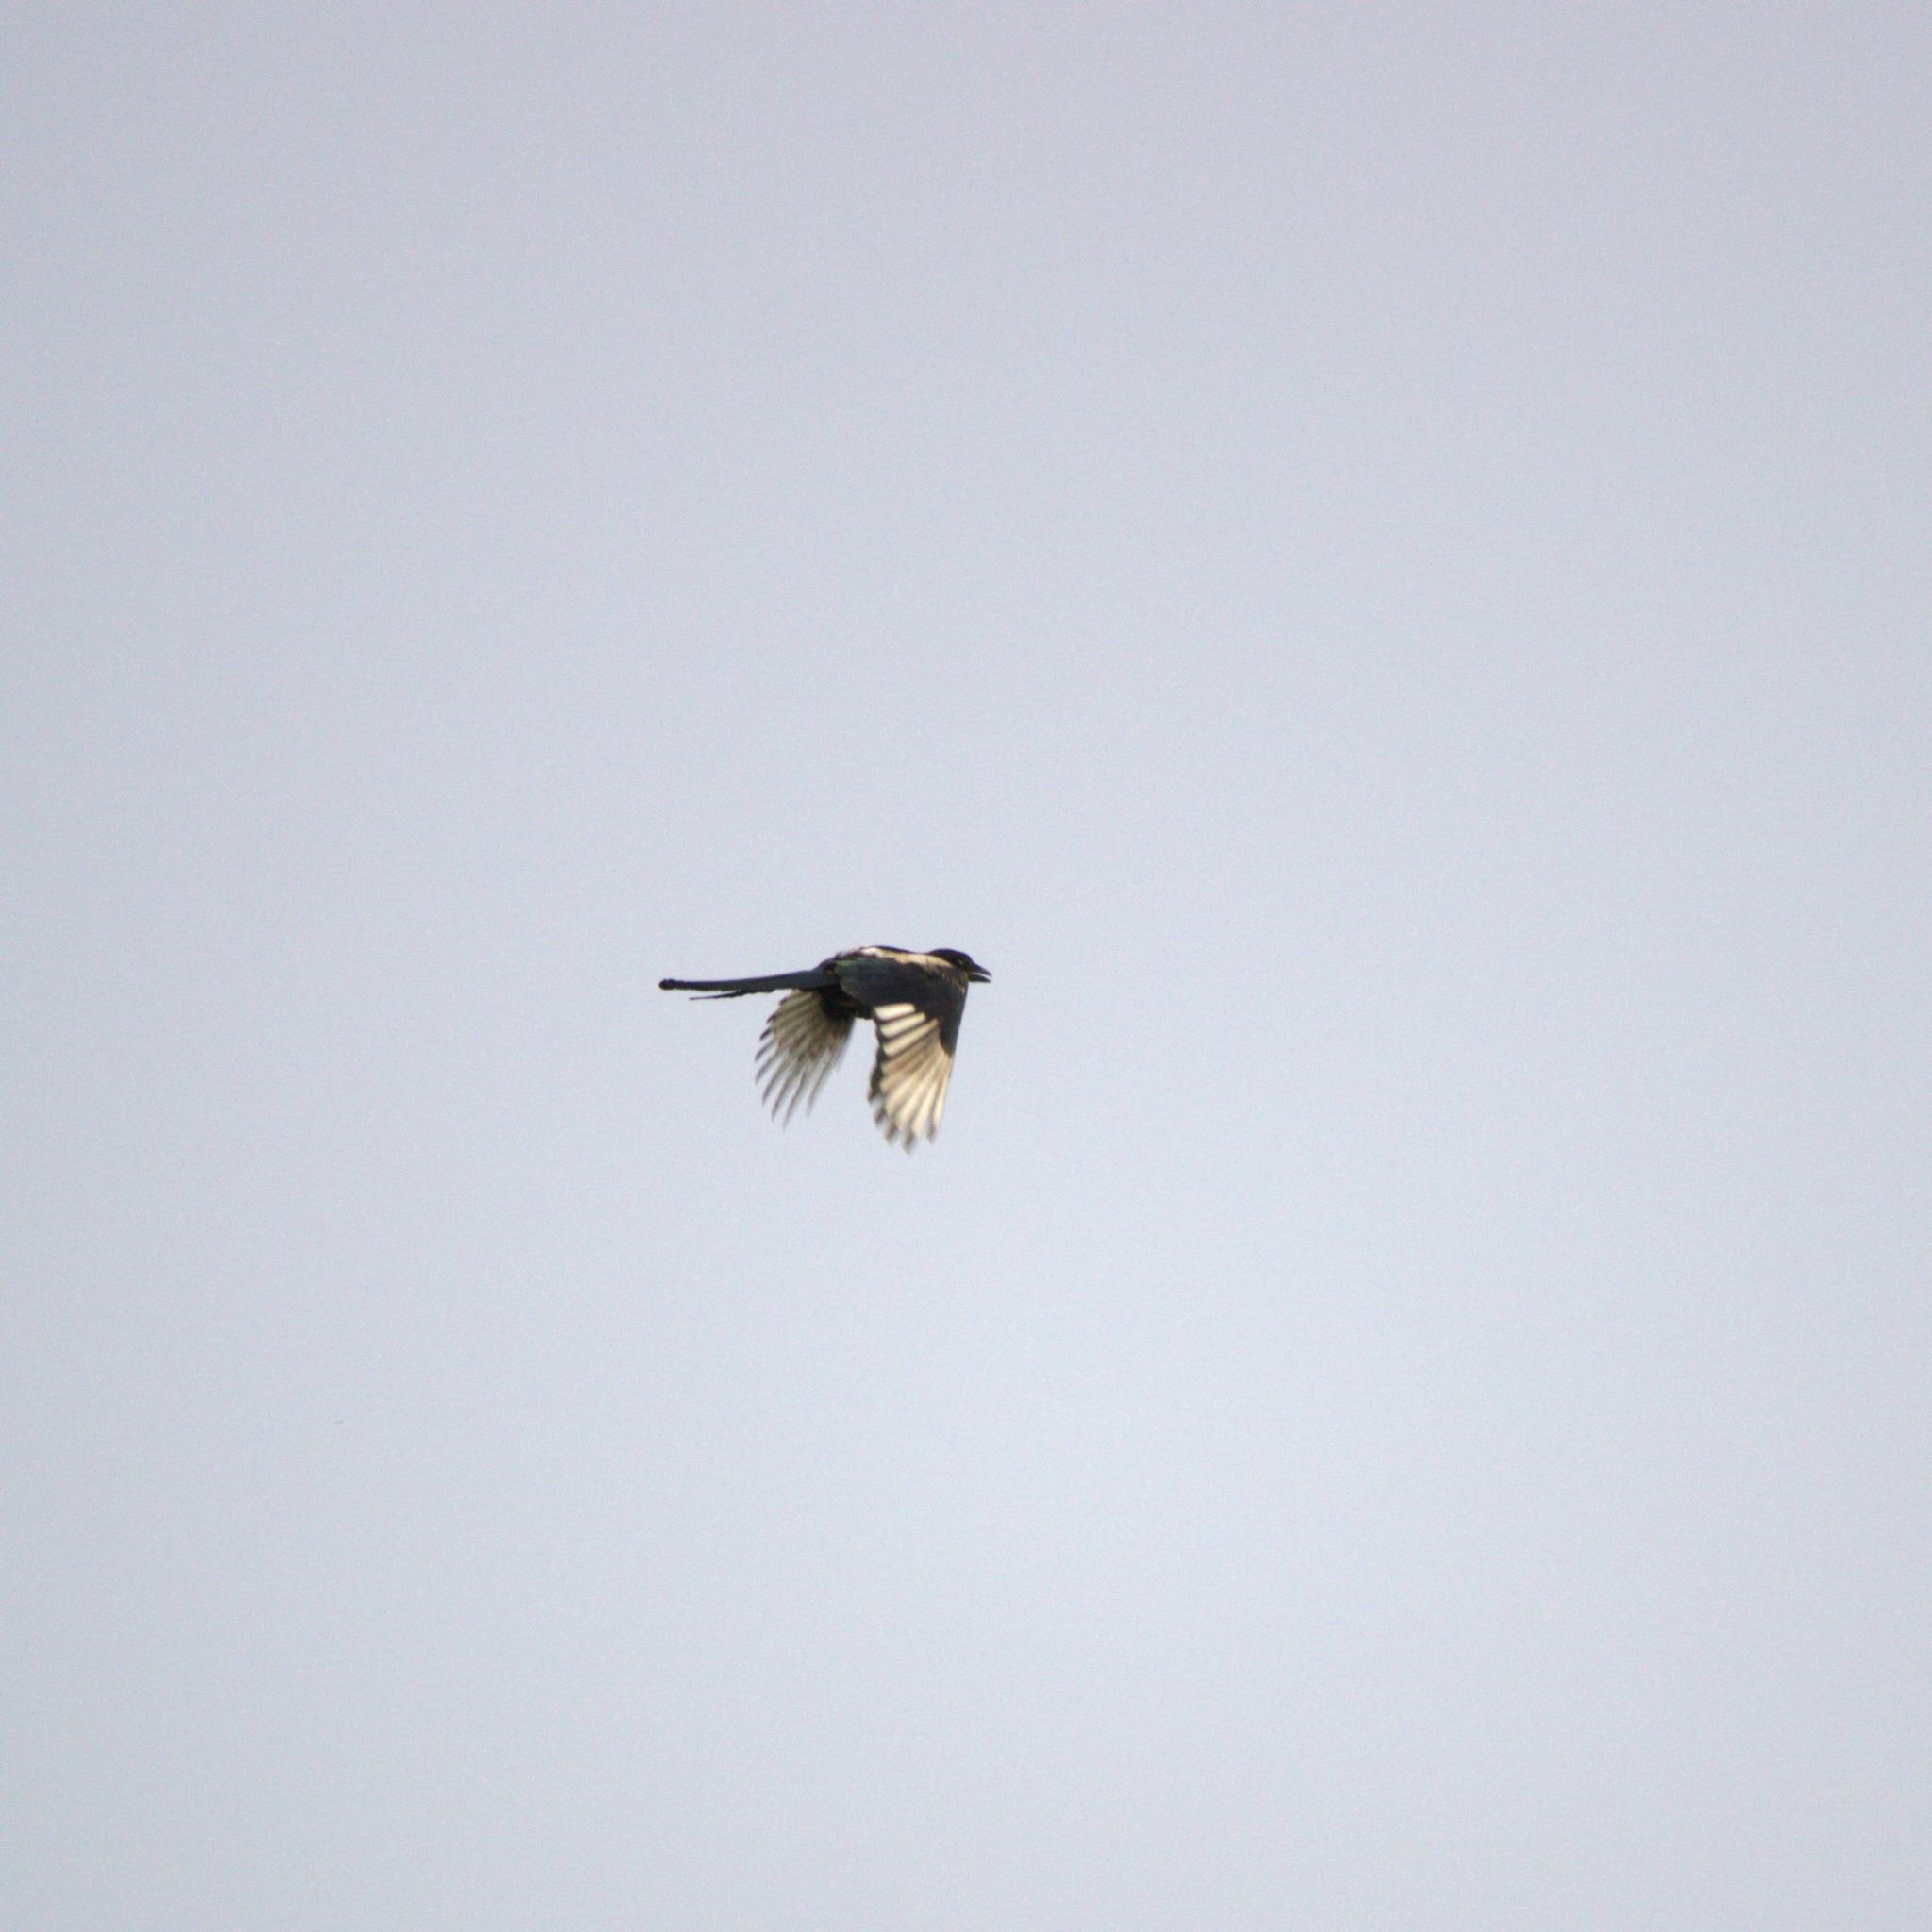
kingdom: Animalia
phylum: Chordata
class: Aves
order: Passeriformes
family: Corvidae
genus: Pica
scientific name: Pica pica
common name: Eurasian magpie
